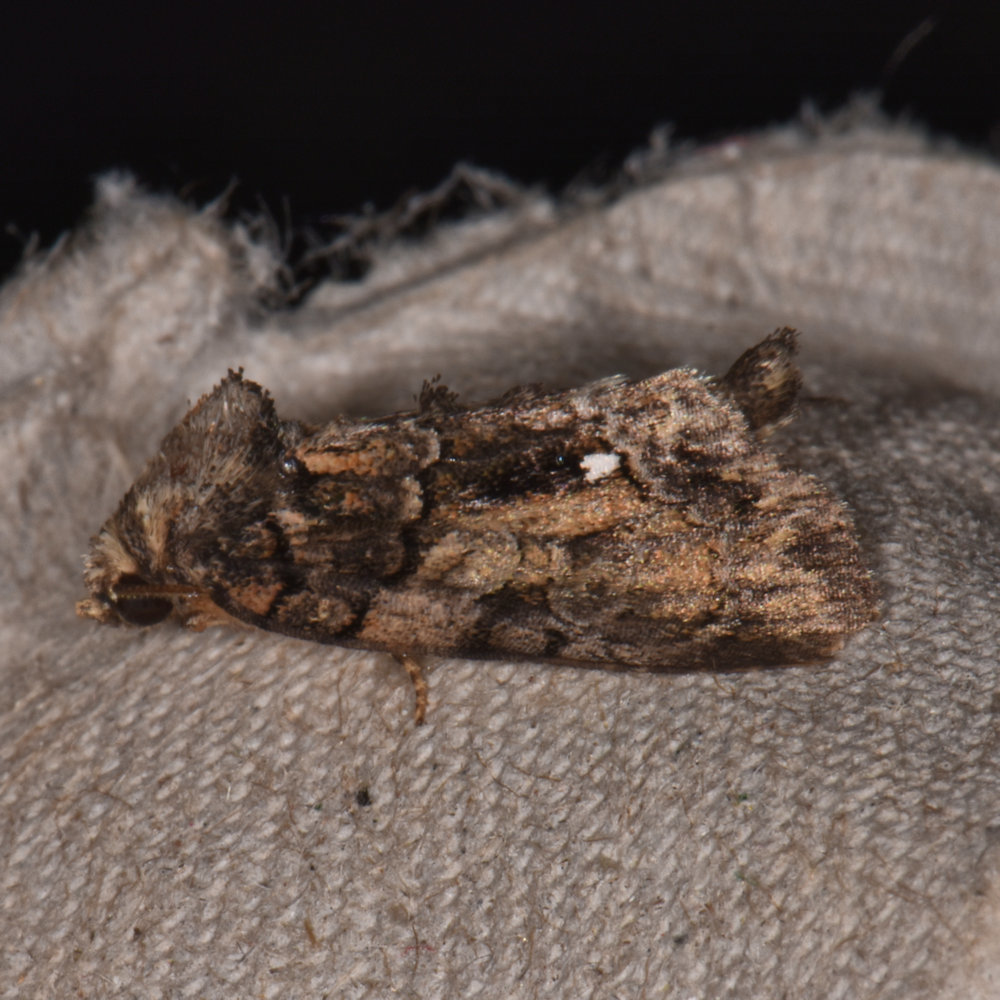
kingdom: Animalia
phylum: Arthropoda
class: Insecta
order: Lepidoptera
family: Noctuidae
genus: Chytonix
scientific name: Chytonix palliatricula
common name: Cloaked marvel
